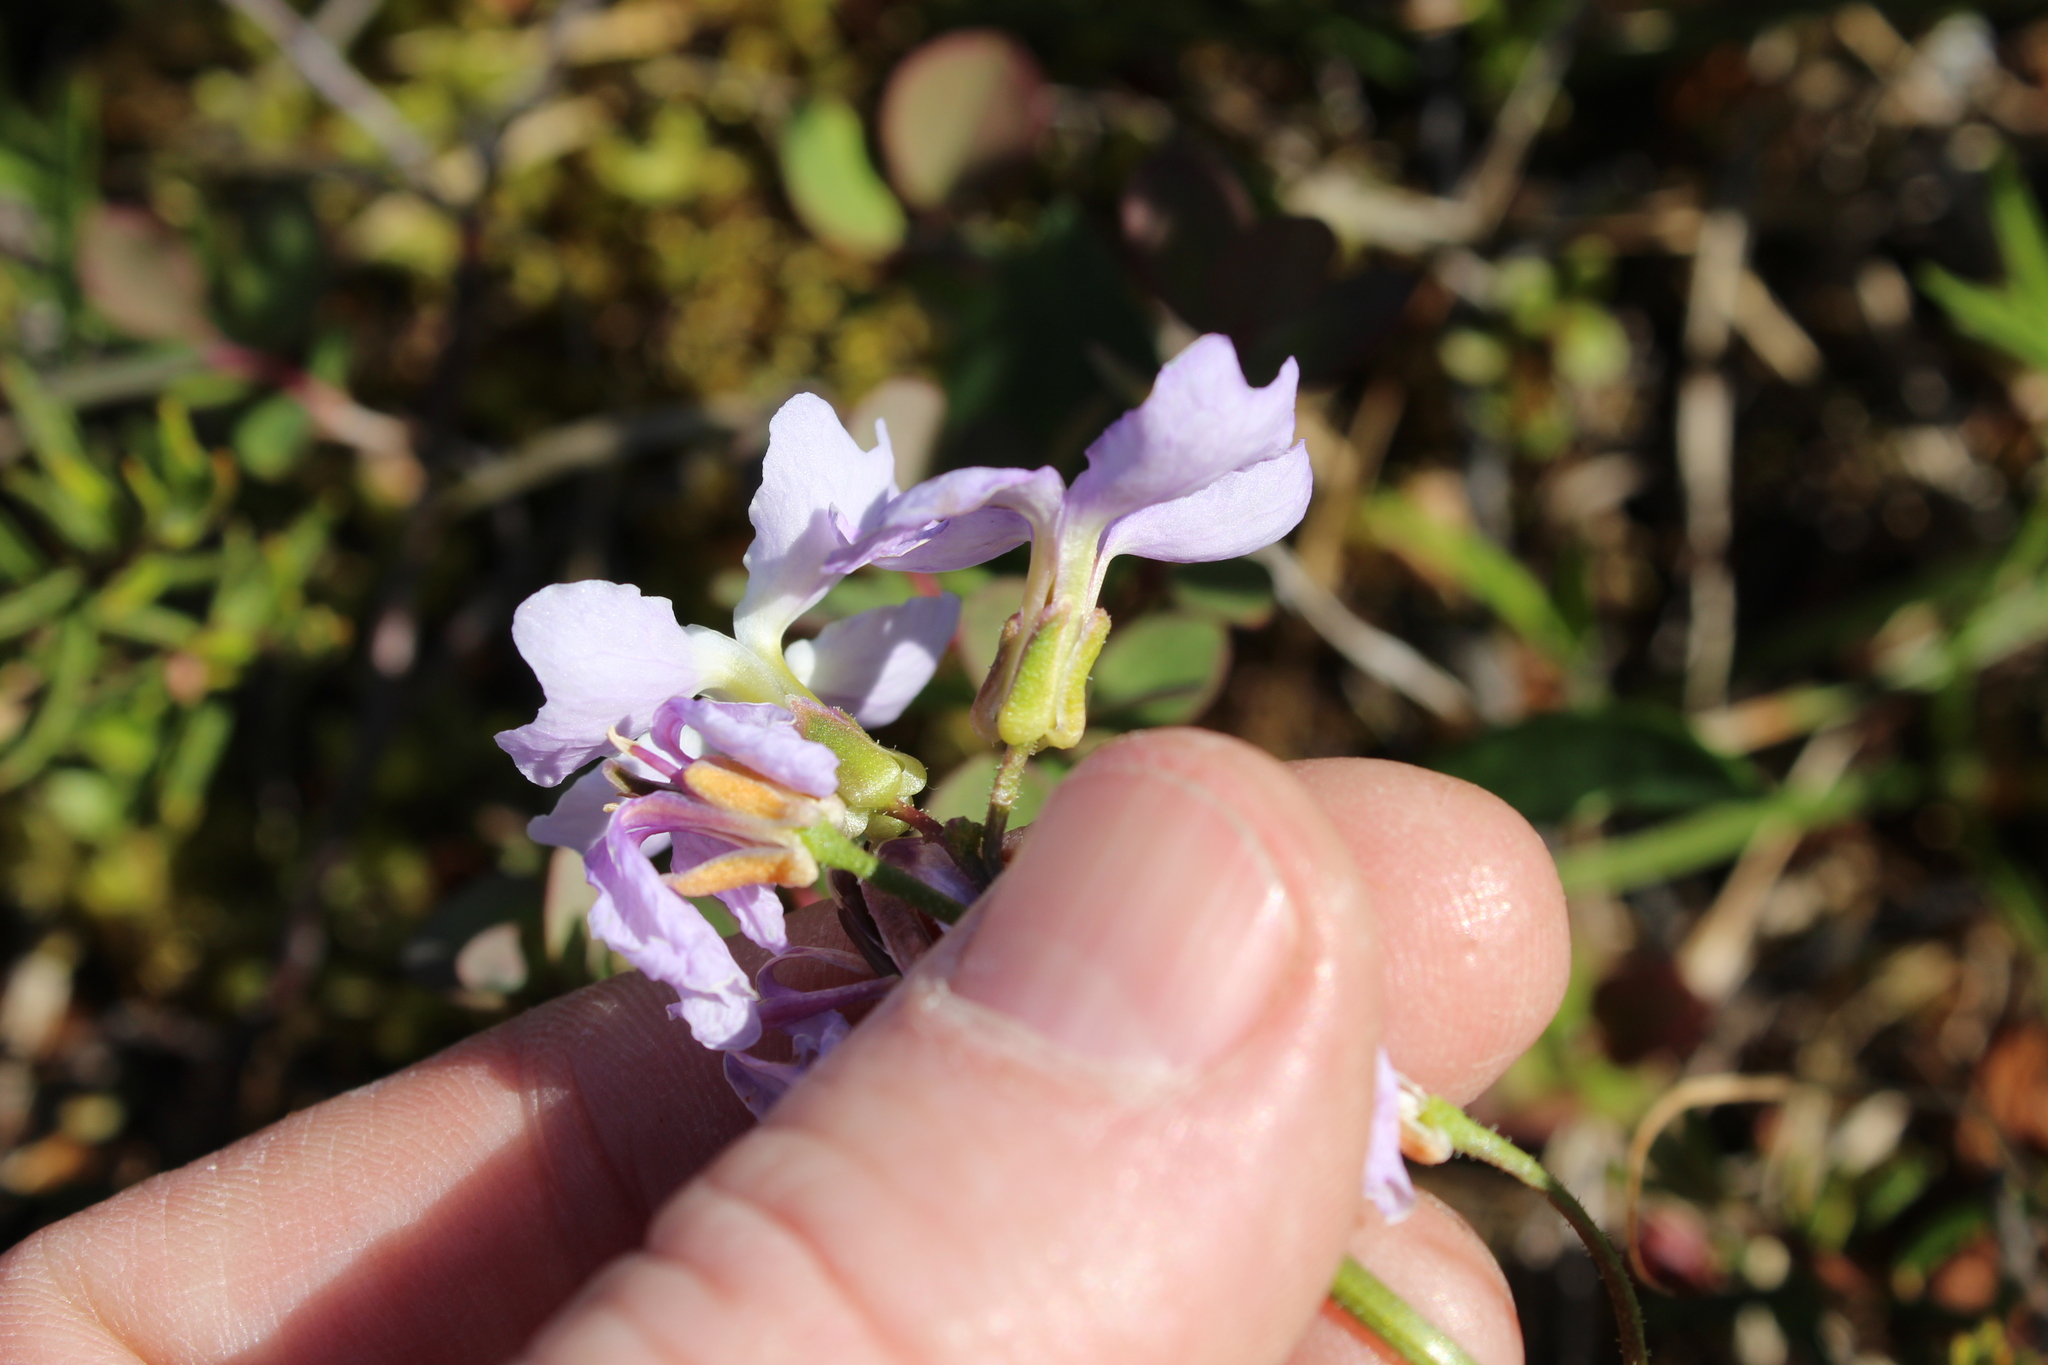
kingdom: Plantae
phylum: Tracheophyta
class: Magnoliopsida
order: Brassicales
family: Brassicaceae
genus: Parrya
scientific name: Parrya nudicaulis
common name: Naked-stemmed false wallflower
